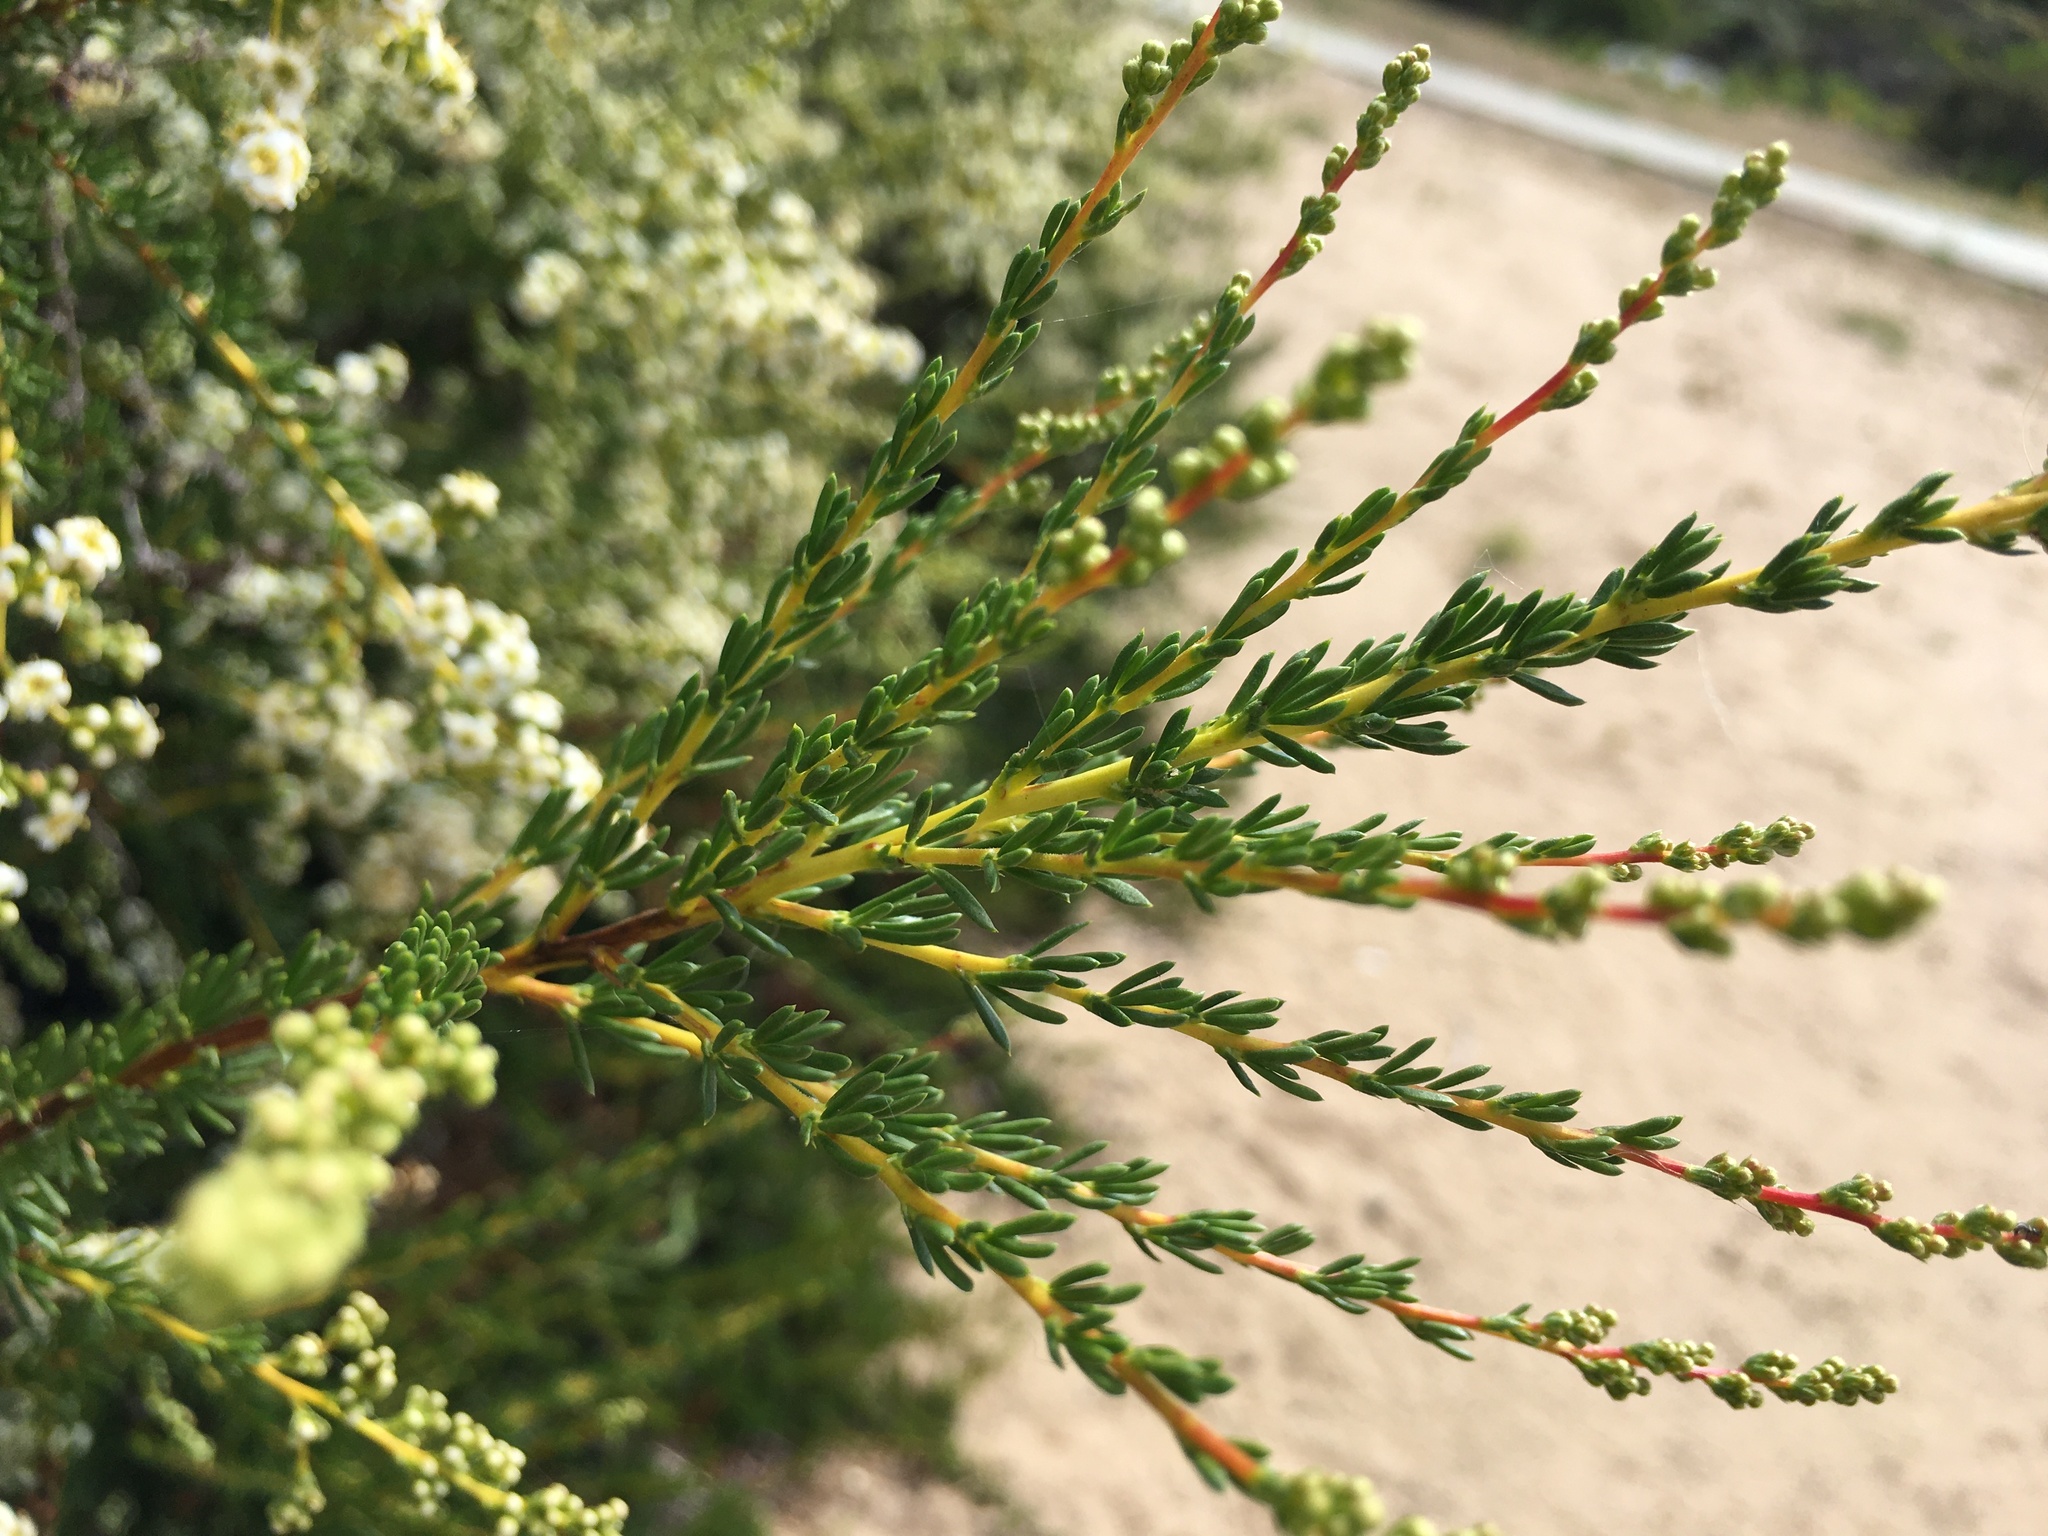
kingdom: Plantae
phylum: Tracheophyta
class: Magnoliopsida
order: Rosales
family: Rosaceae
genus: Adenostoma
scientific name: Adenostoma fasciculatum
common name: Chamise
